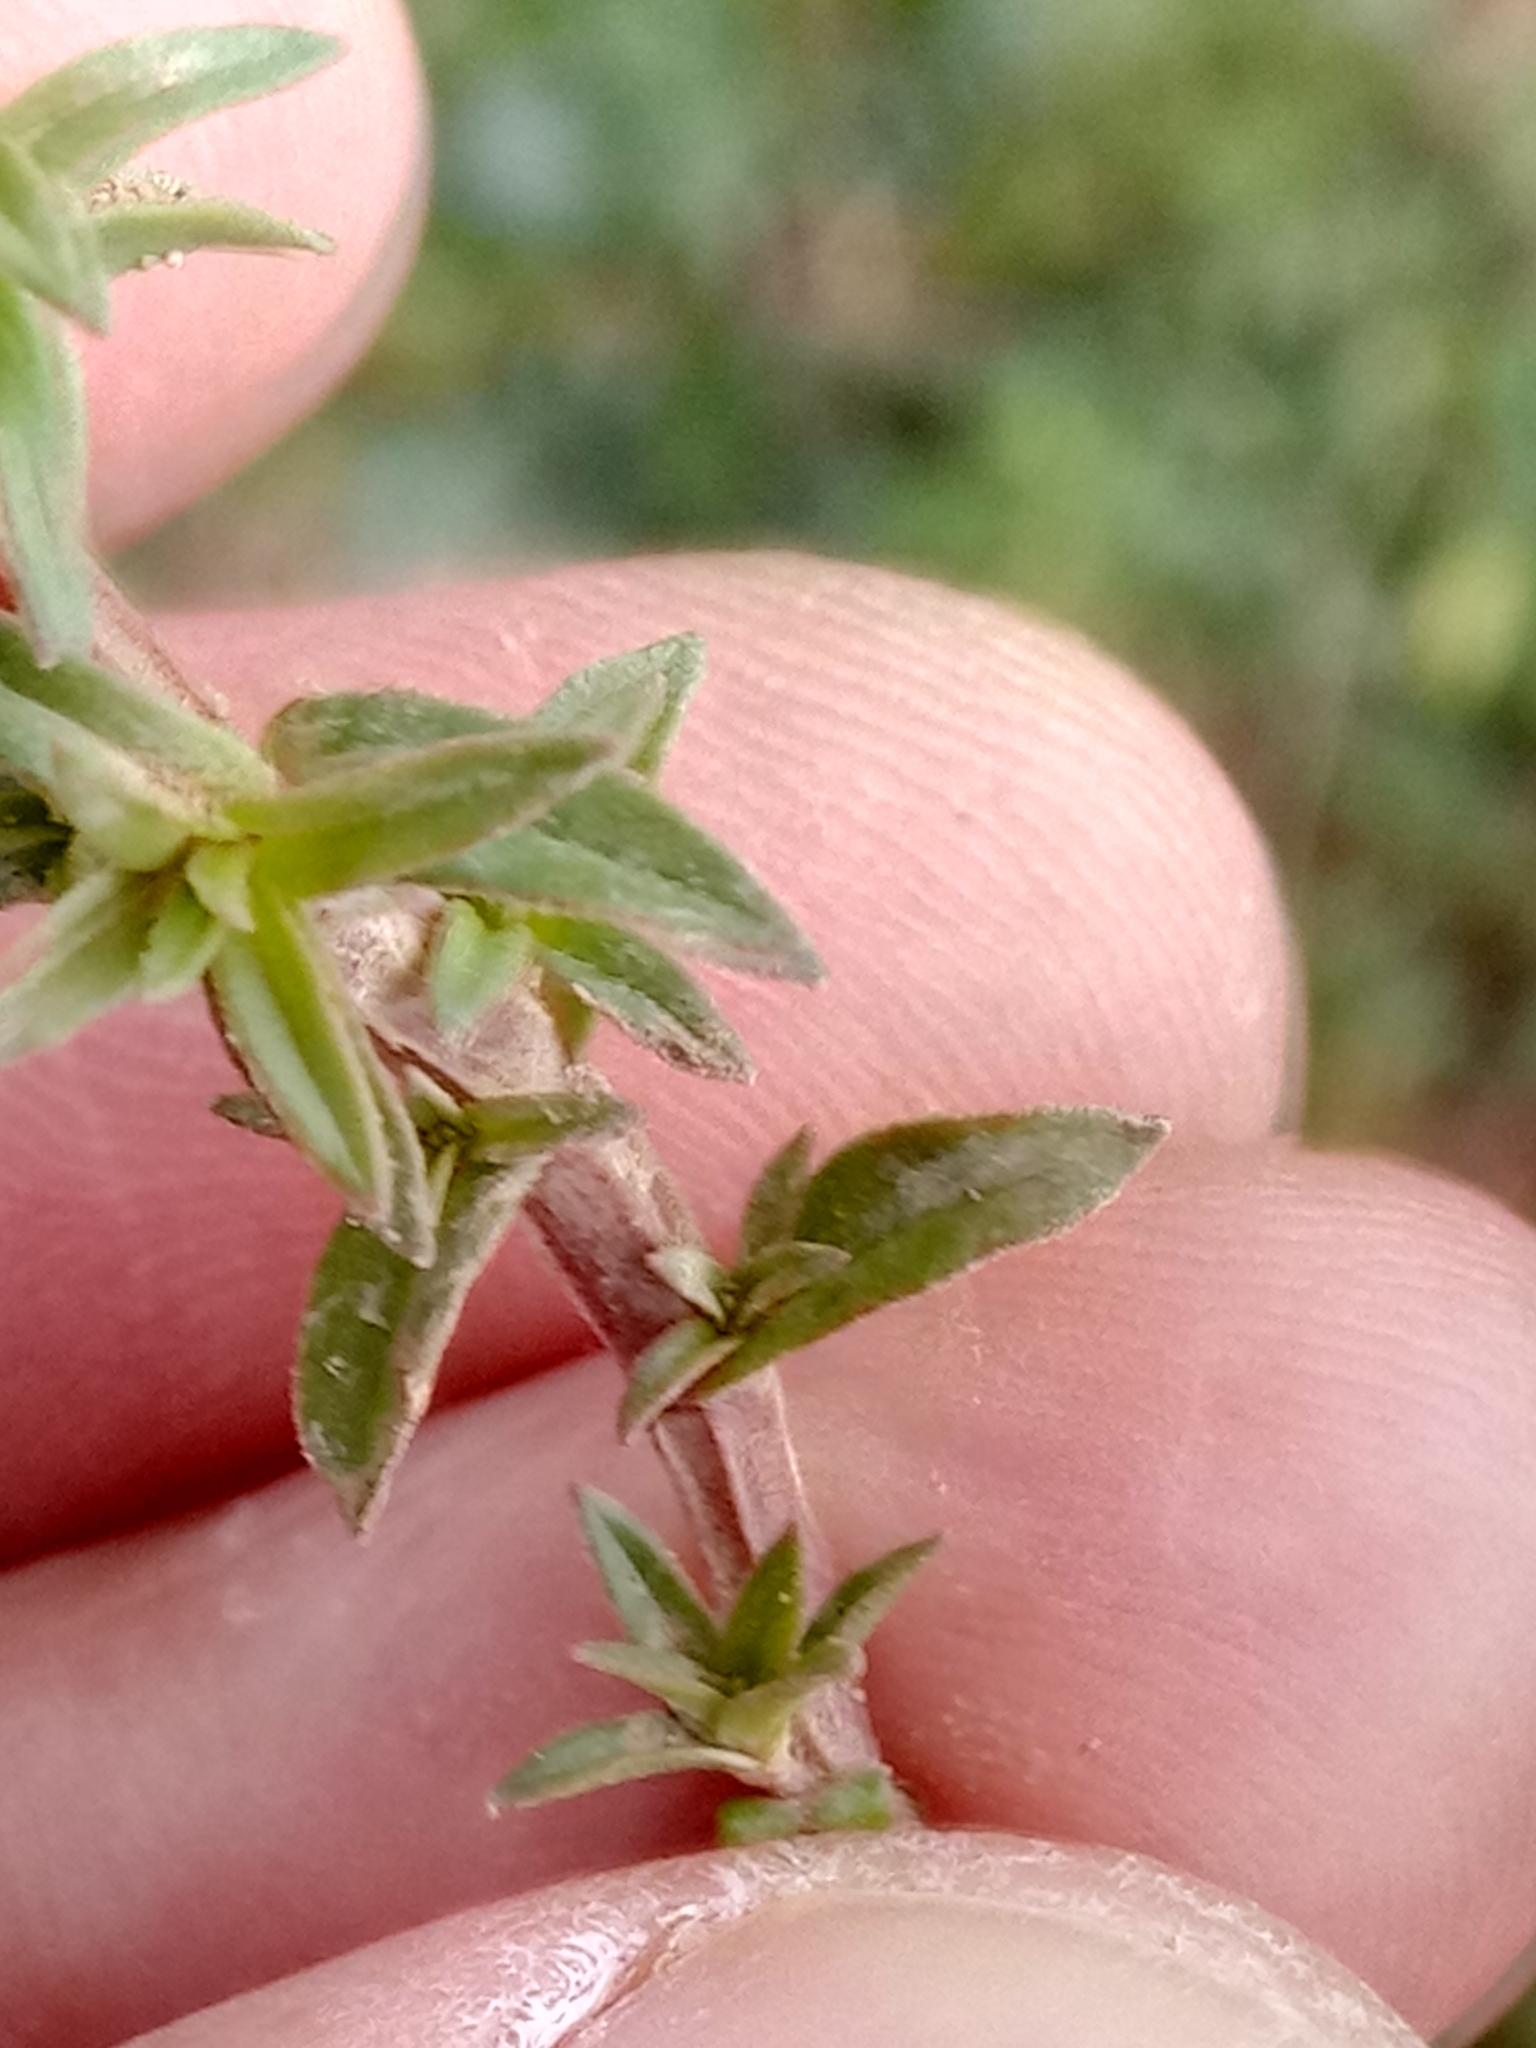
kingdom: Plantae
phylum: Tracheophyta
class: Magnoliopsida
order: Ericales
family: Primulaceae
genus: Lysimachia
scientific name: Lysimachia monelli
